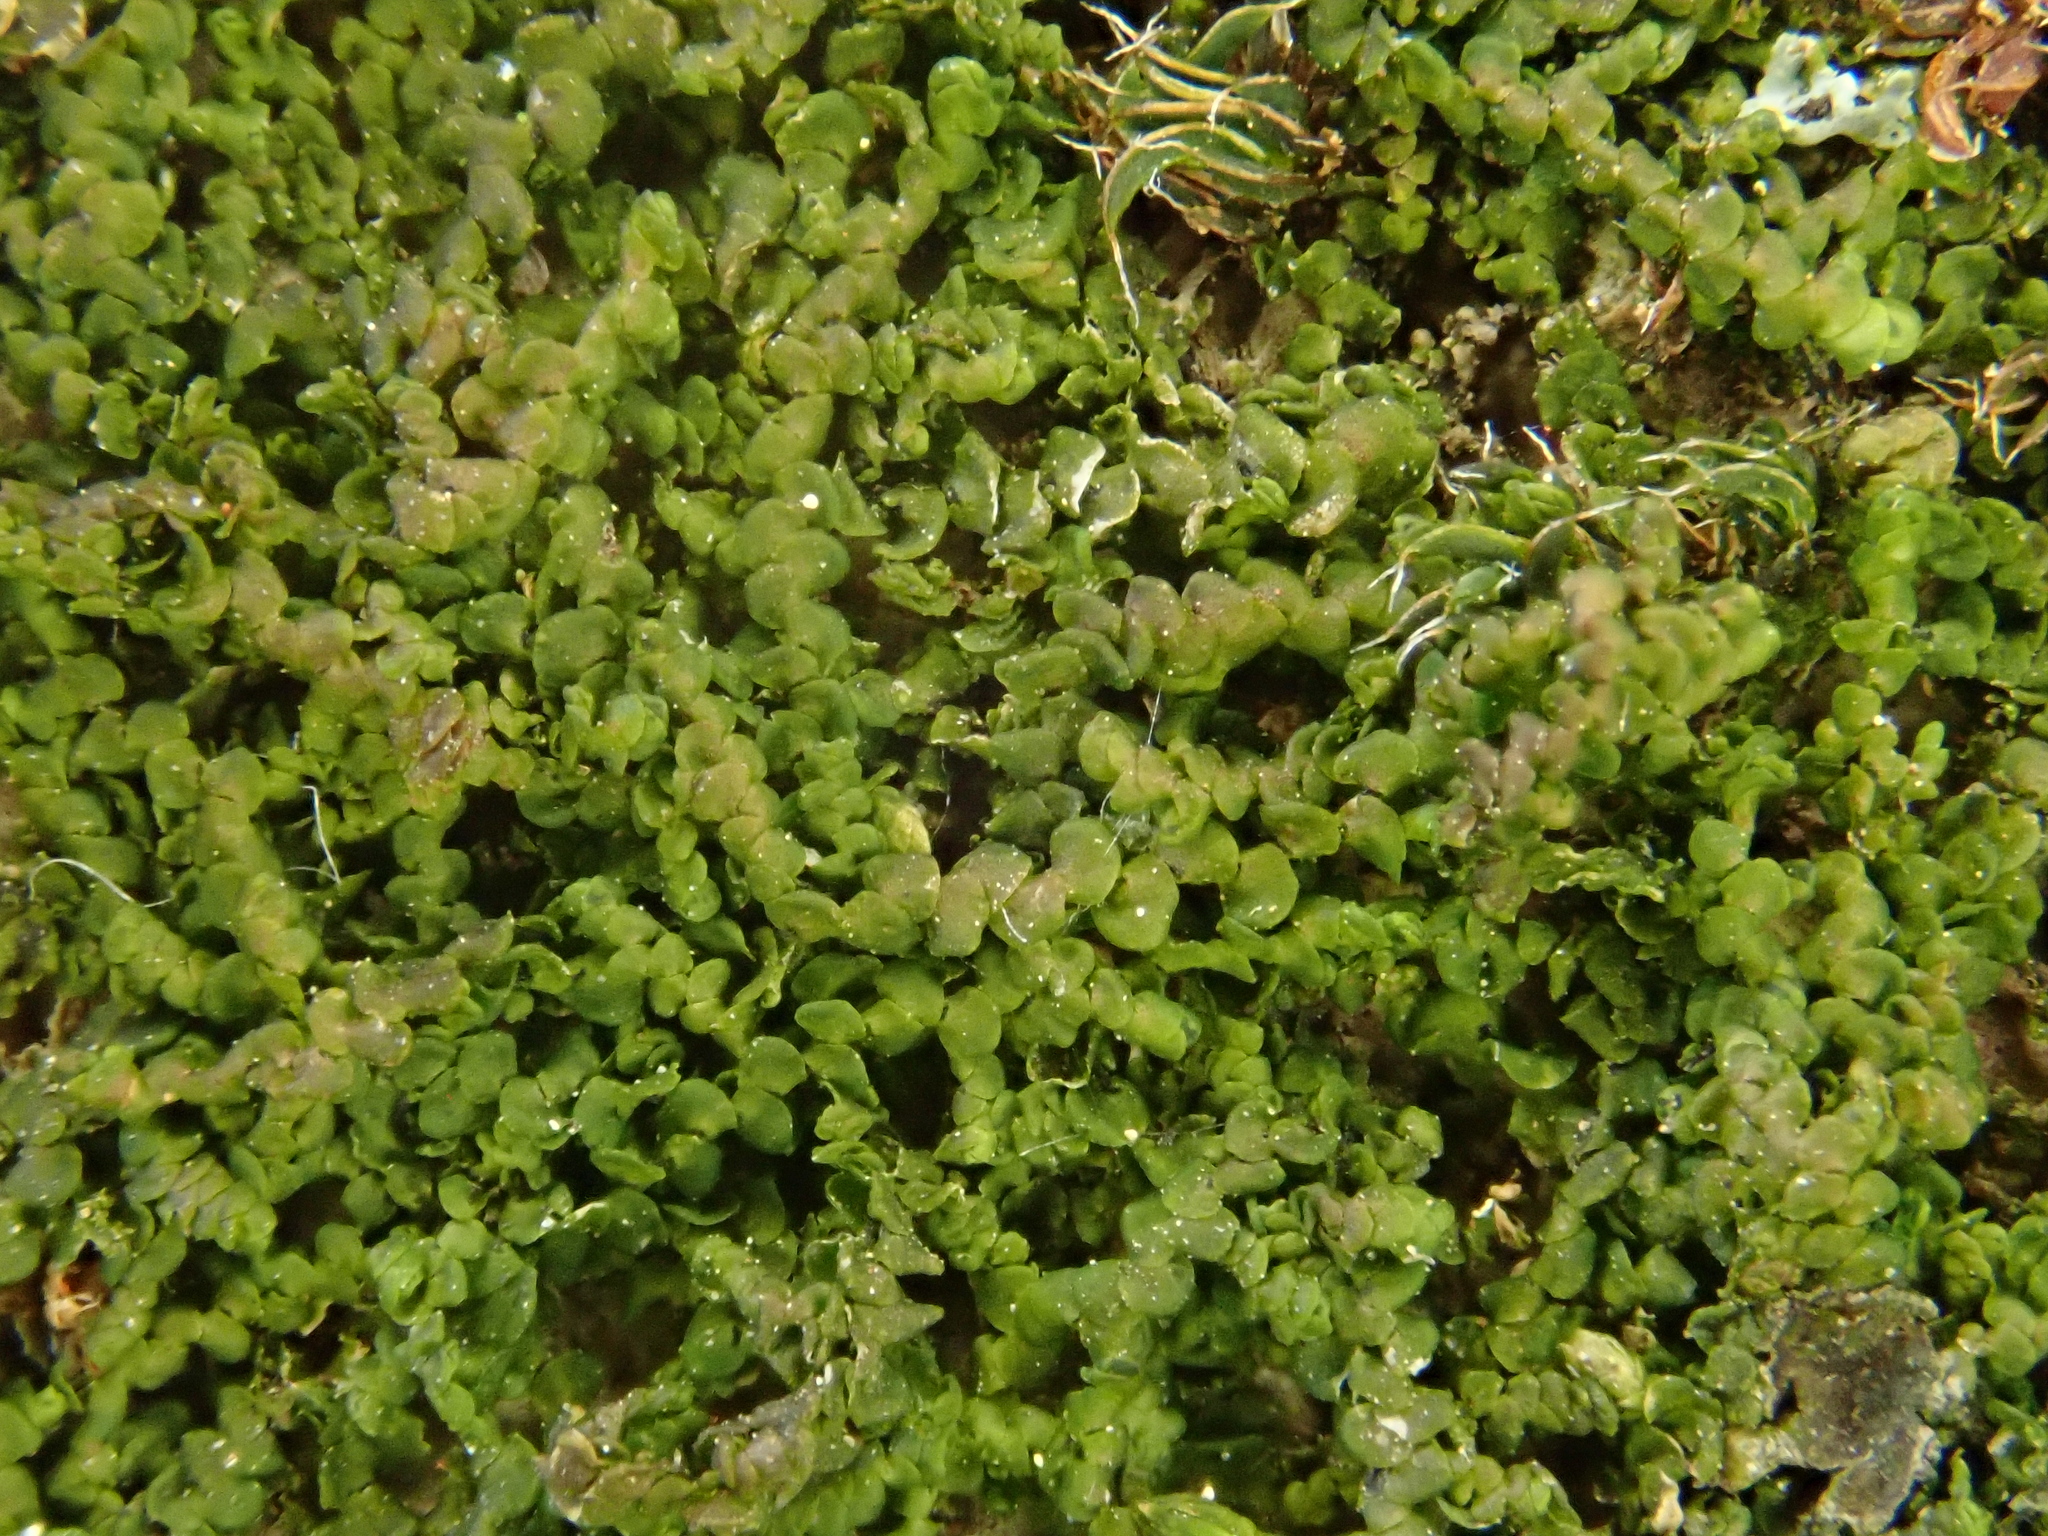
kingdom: Plantae
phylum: Marchantiophyta
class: Jungermanniopsida
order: Porellales
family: Frullaniaceae
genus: Frullania
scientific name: Frullania dilatata
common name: Dilated scalewort
